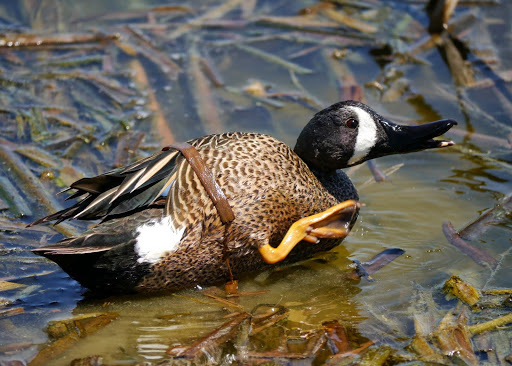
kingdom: Animalia
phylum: Chordata
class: Aves
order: Anseriformes
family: Anatidae
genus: Spatula
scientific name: Spatula discors
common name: Blue-winged teal
